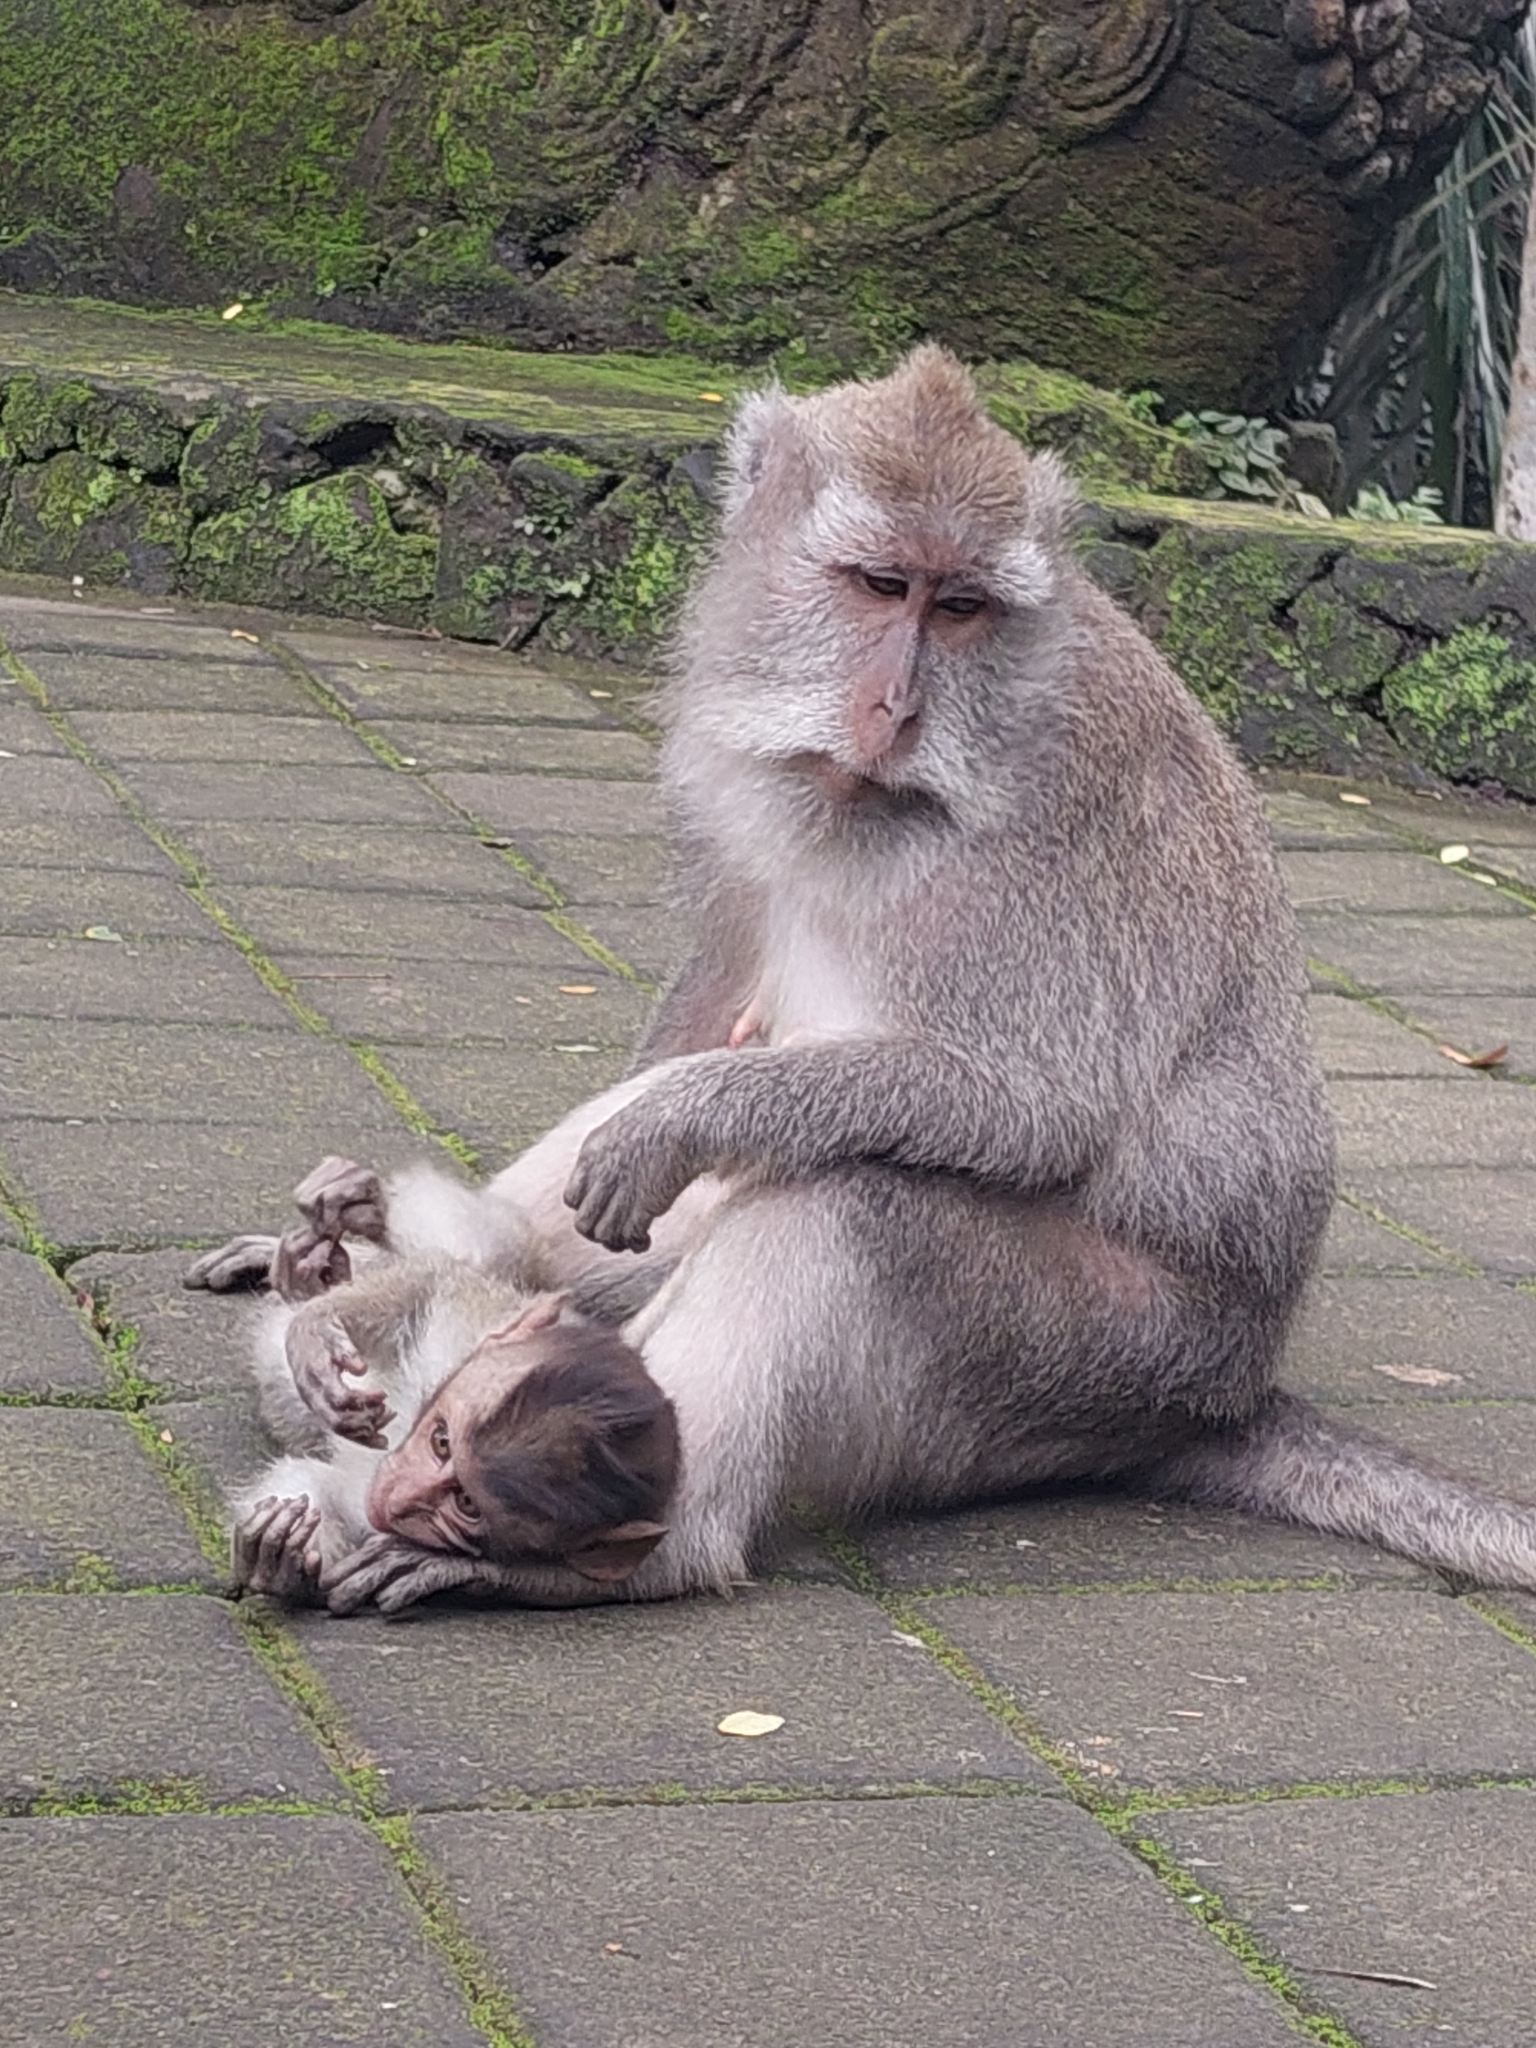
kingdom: Animalia
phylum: Chordata
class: Mammalia
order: Primates
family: Cercopithecidae
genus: Macaca
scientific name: Macaca fascicularis
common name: Crab-eating macaque
